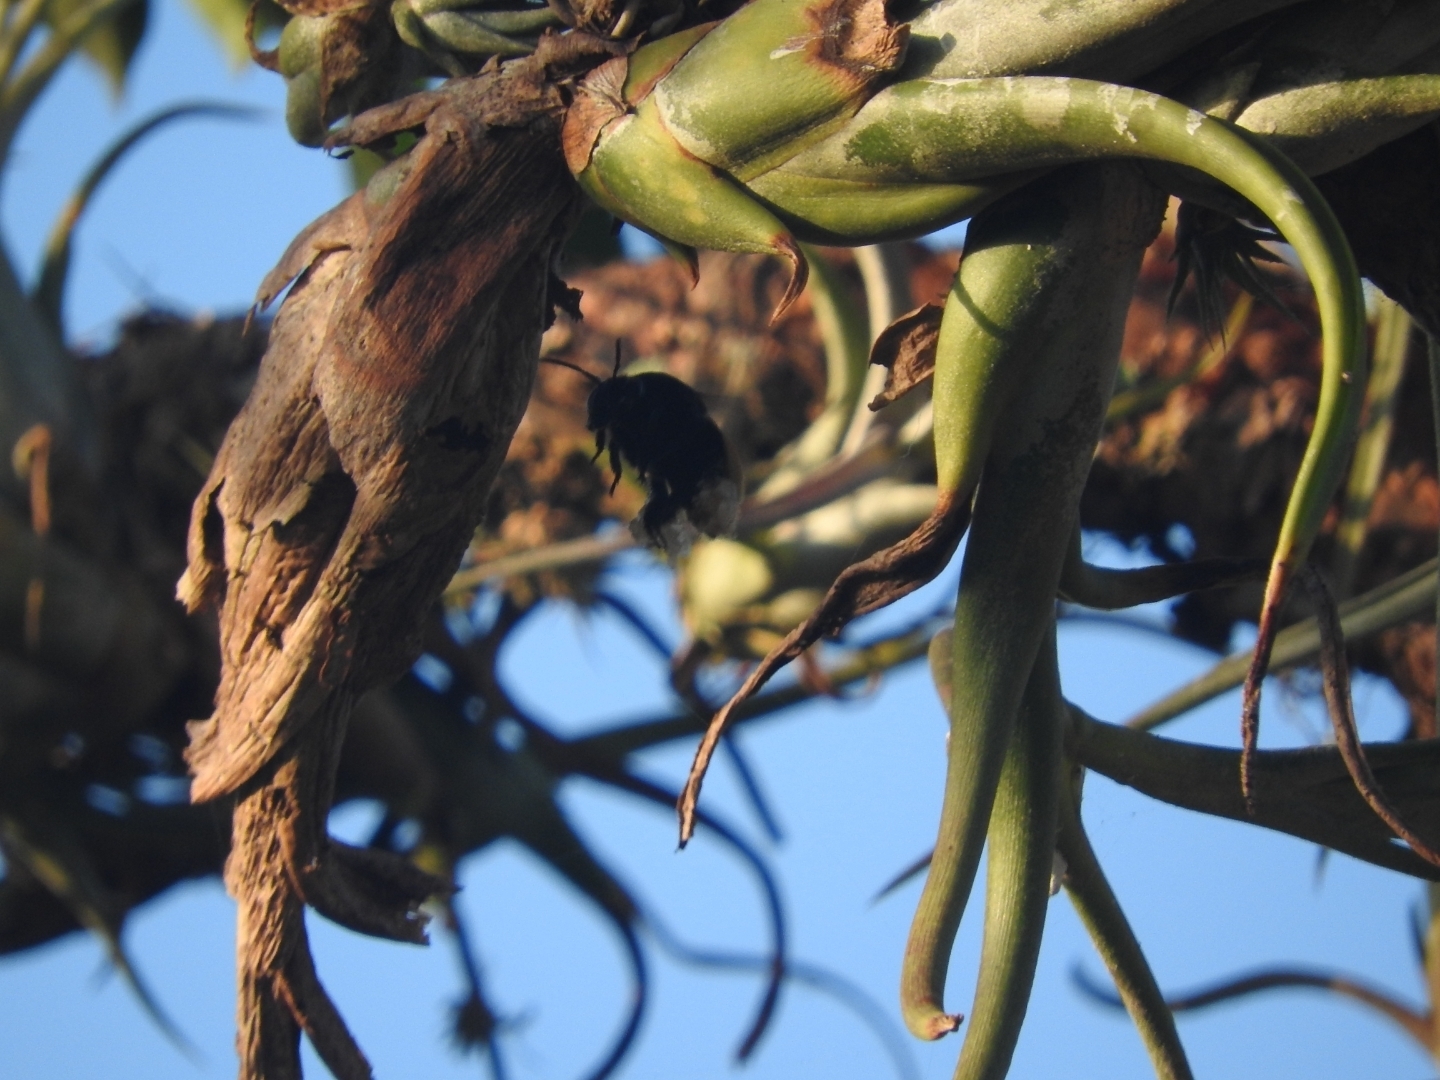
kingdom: Animalia
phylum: Arthropoda
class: Insecta
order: Hymenoptera
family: Apidae
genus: Eulaema
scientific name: Eulaema polychroma
